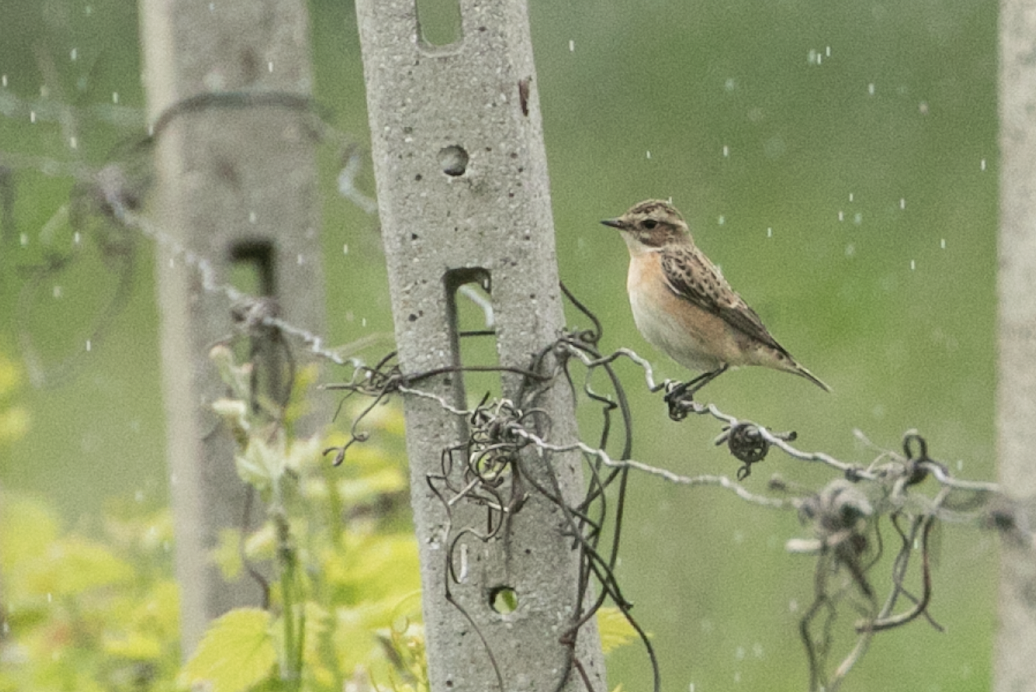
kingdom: Animalia
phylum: Chordata
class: Aves
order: Passeriformes
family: Muscicapidae
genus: Saxicola
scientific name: Saxicola rubetra
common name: Whinchat
